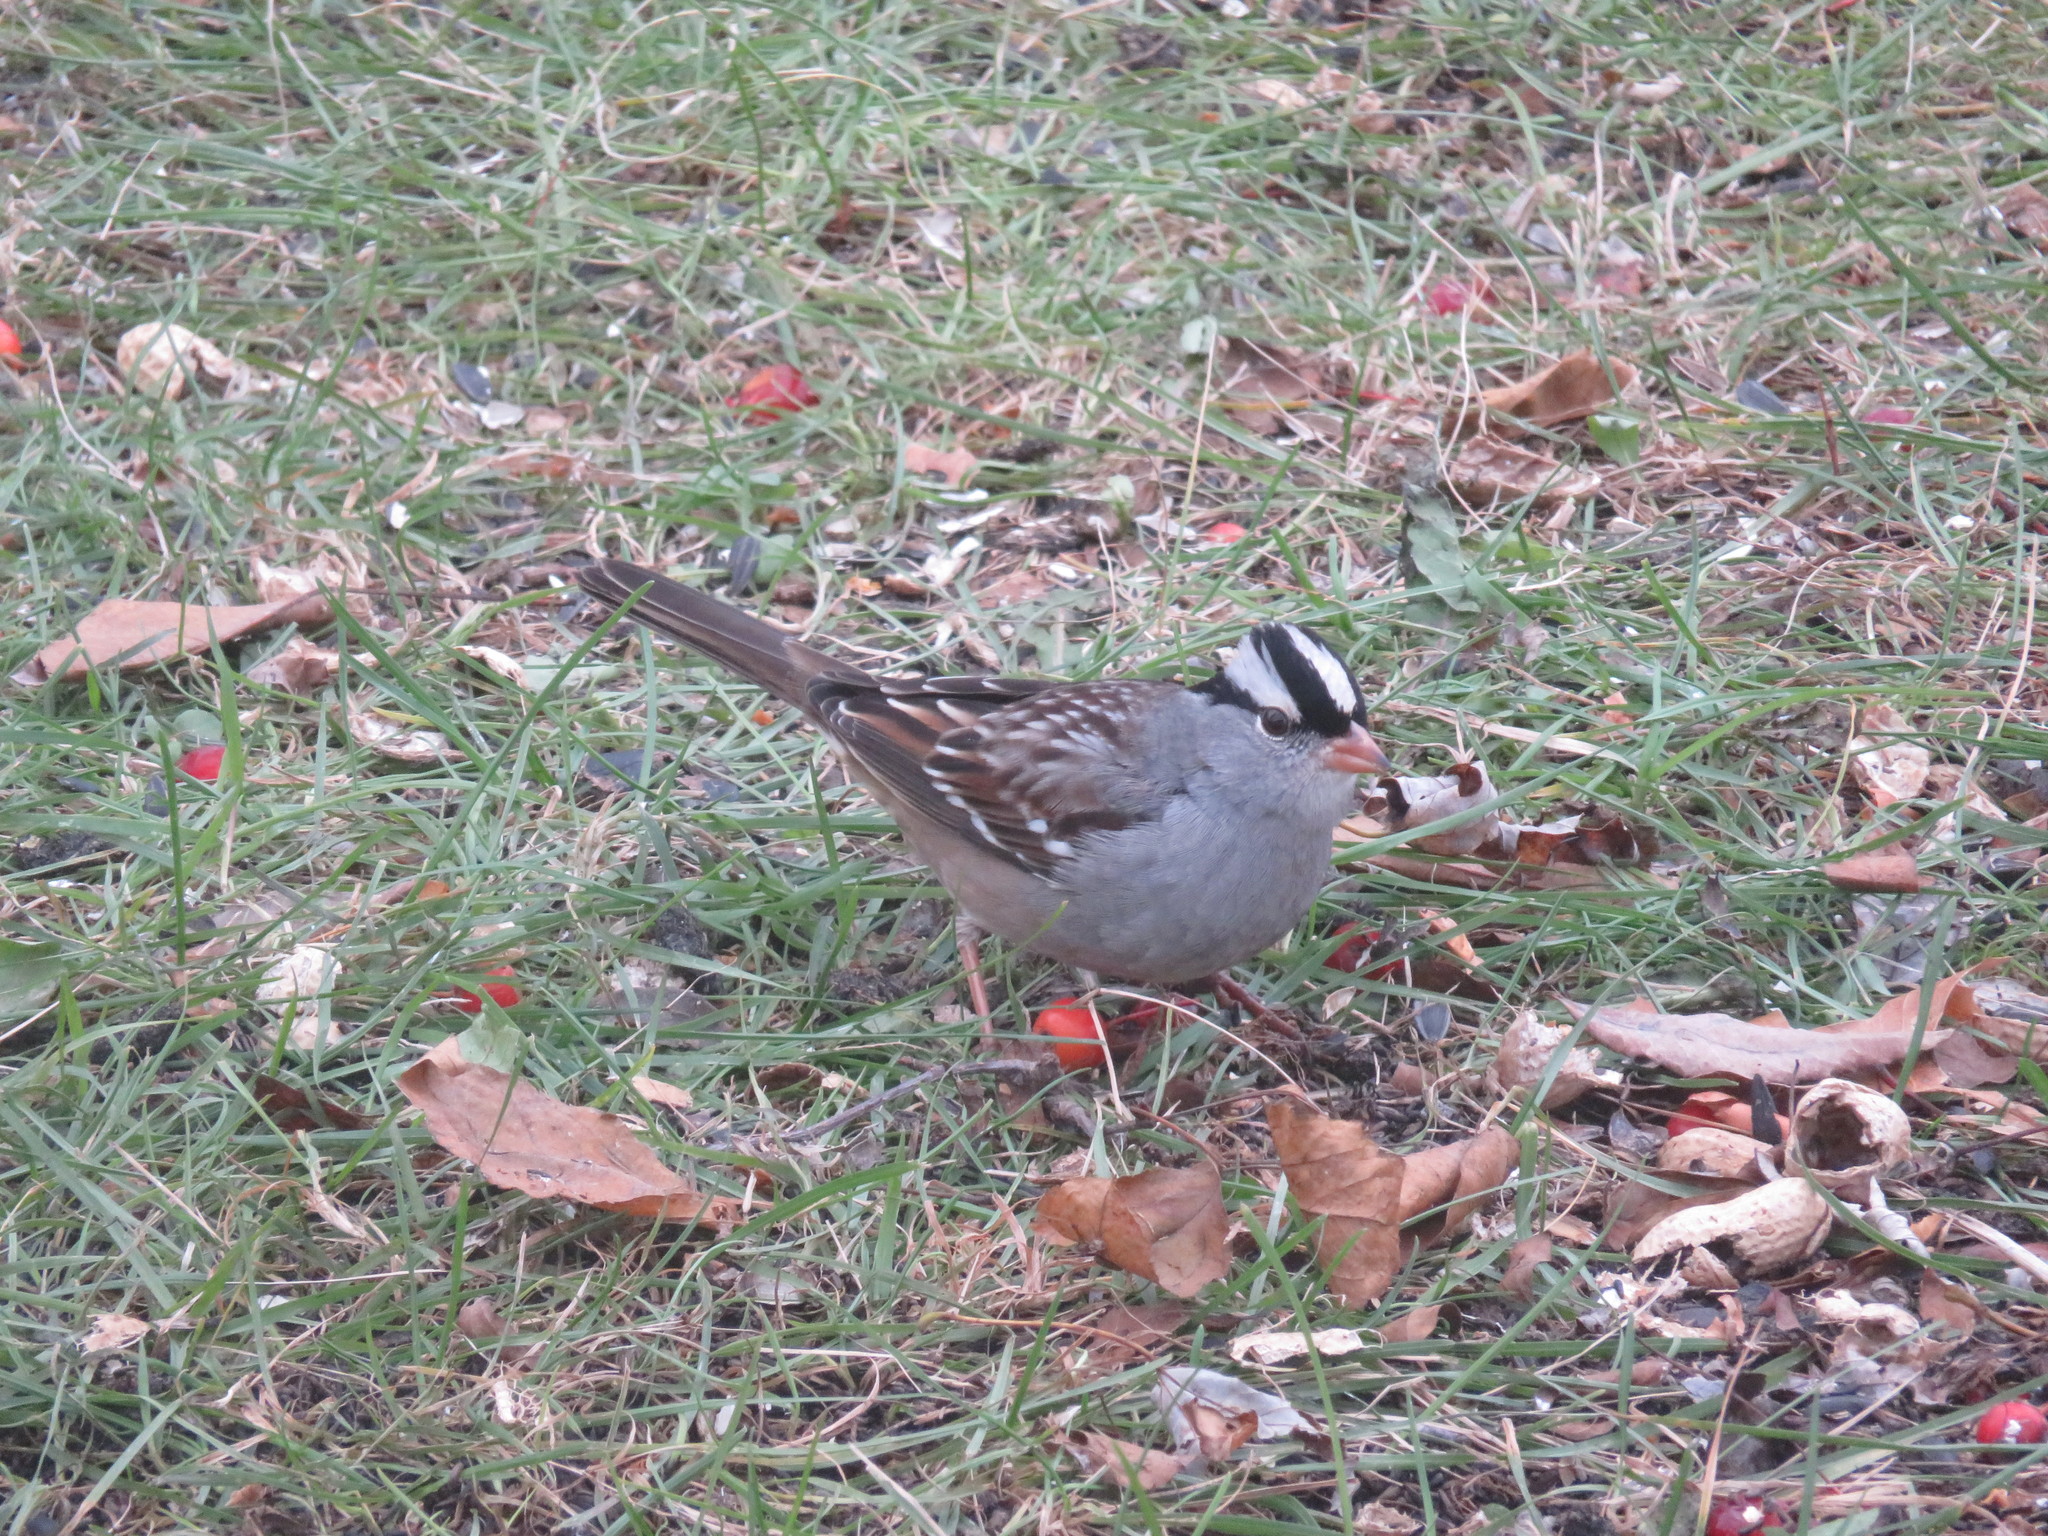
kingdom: Animalia
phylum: Chordata
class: Aves
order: Passeriformes
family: Passerellidae
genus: Zonotrichia
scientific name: Zonotrichia leucophrys
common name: White-crowned sparrow
